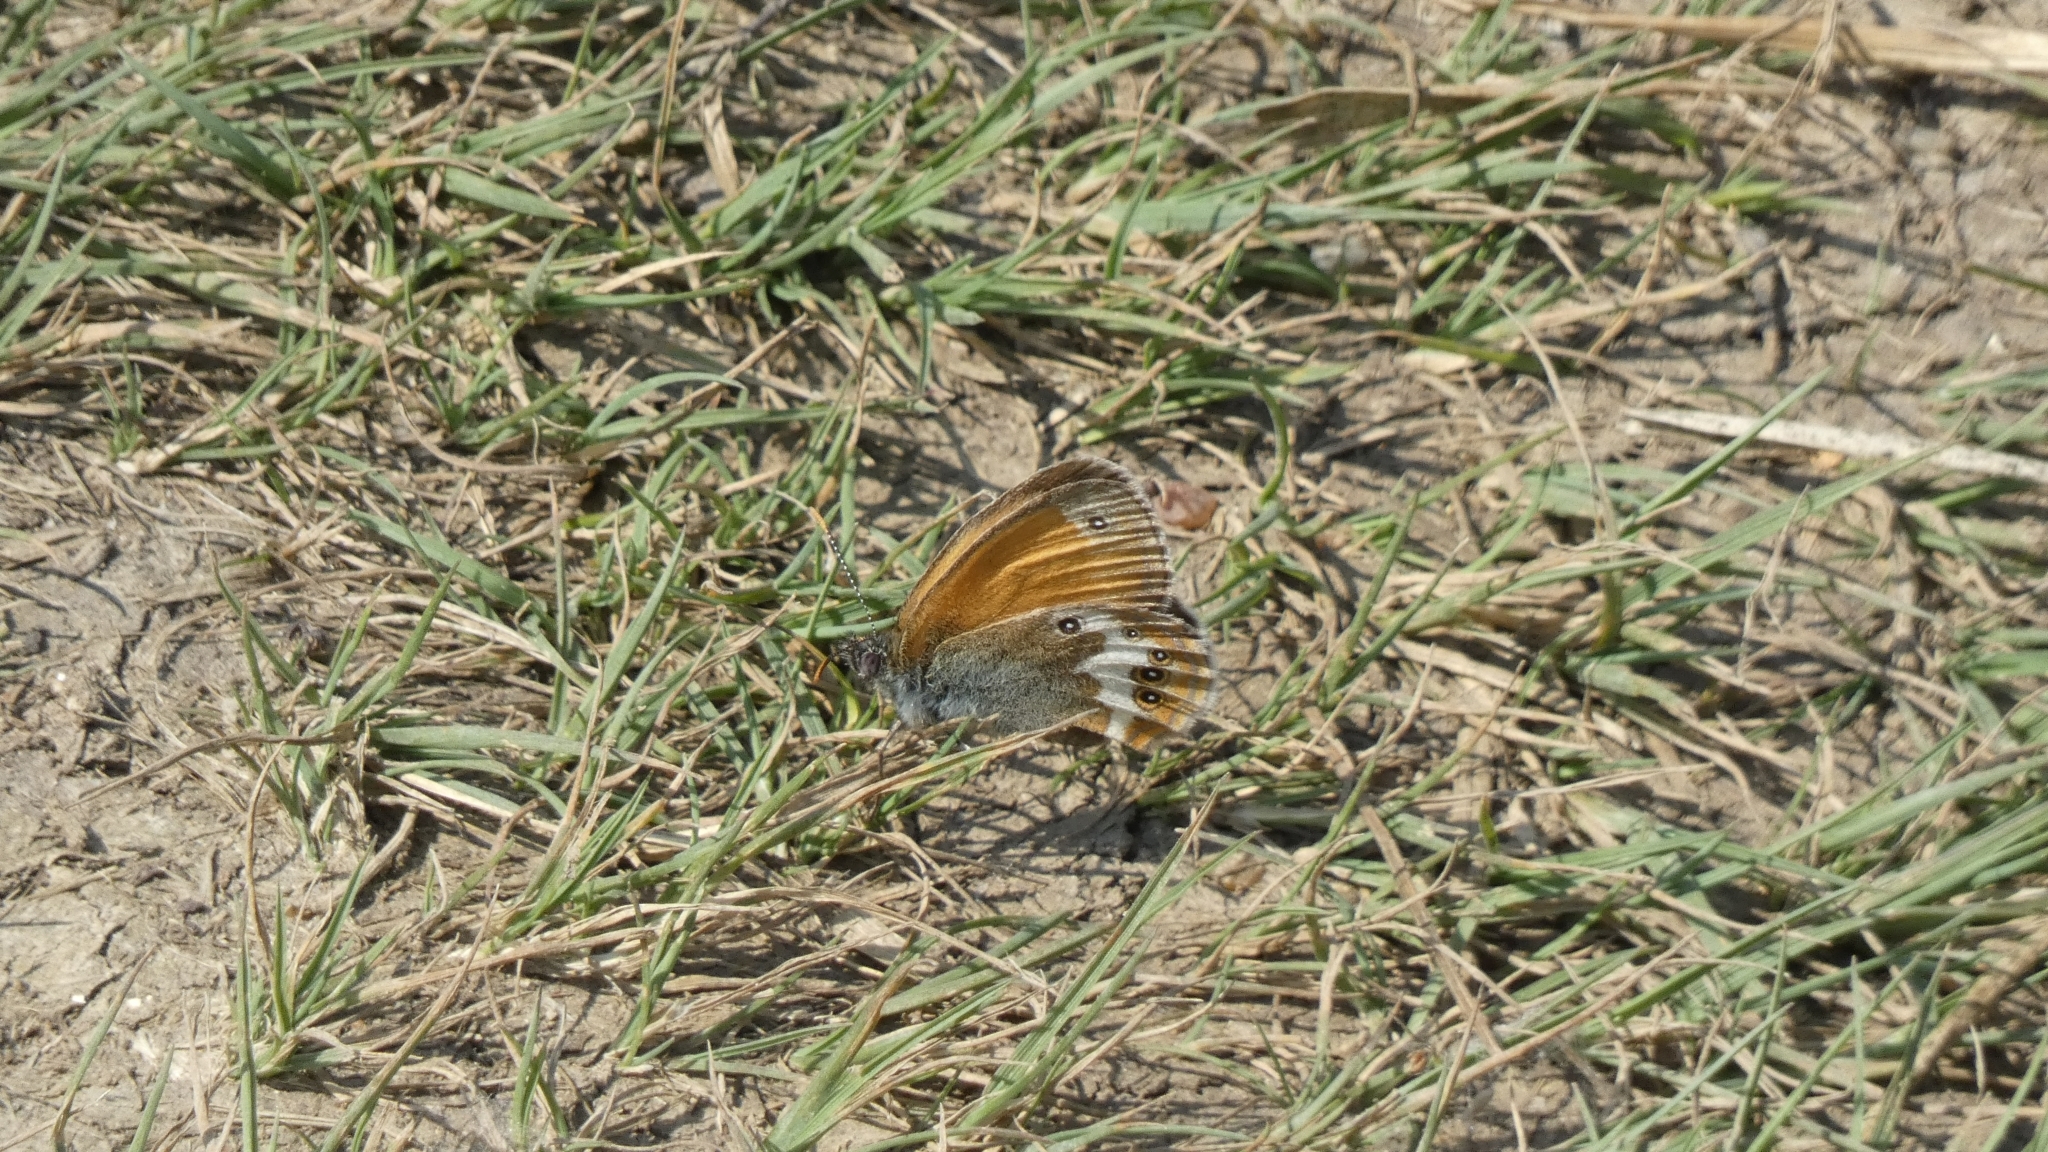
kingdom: Animalia
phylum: Arthropoda
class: Insecta
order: Lepidoptera
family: Nymphalidae
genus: Coenonympha
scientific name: Coenonympha arcania
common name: Pearly heath
